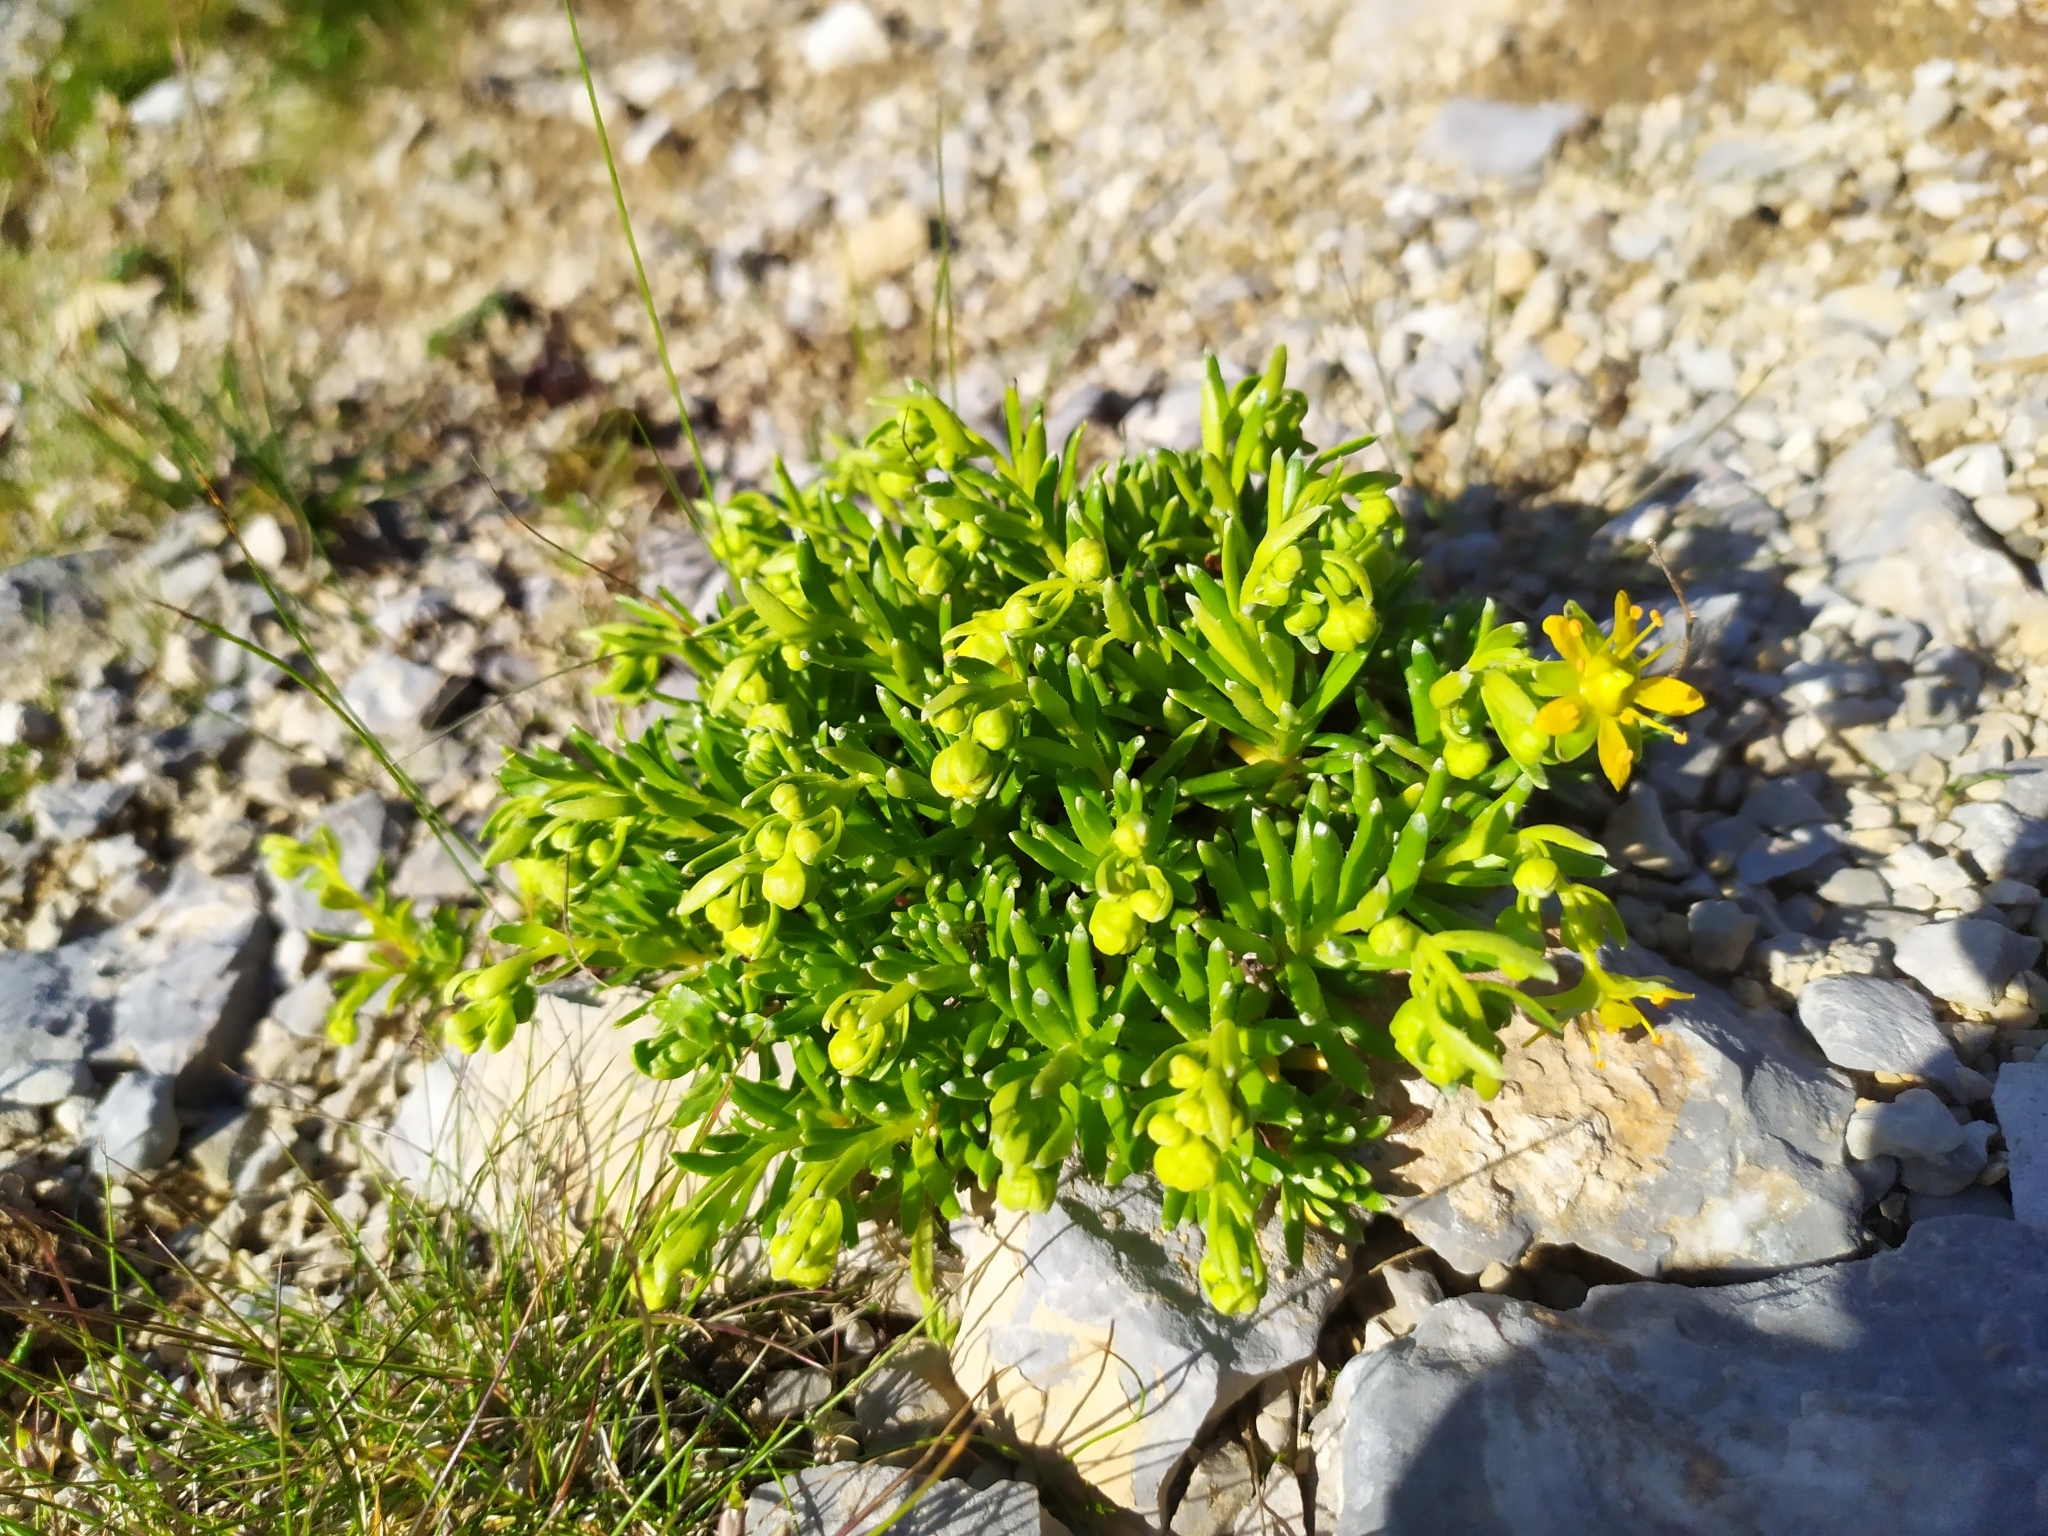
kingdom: Plantae
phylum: Tracheophyta
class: Magnoliopsida
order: Saxifragales
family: Saxifragaceae
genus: Saxifraga
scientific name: Saxifraga aizoides
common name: Yellow mountain saxifrage
